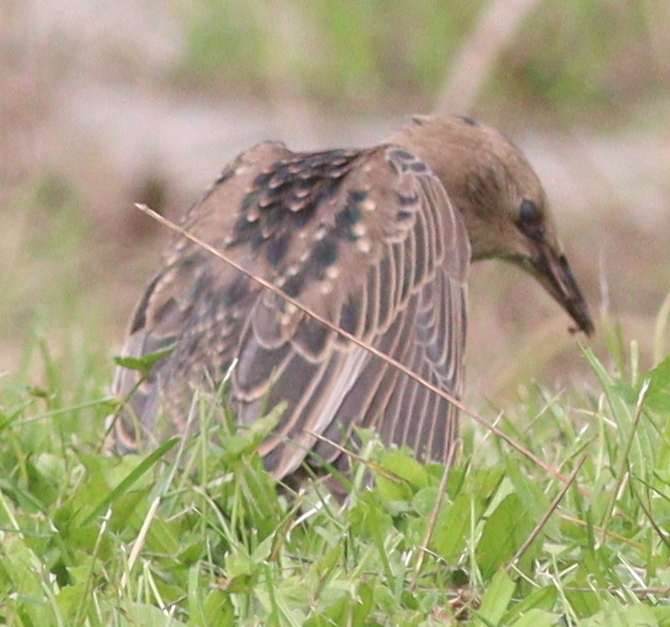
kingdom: Animalia
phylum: Chordata
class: Aves
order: Passeriformes
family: Sturnidae
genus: Sturnus
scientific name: Sturnus vulgaris
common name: Common starling
